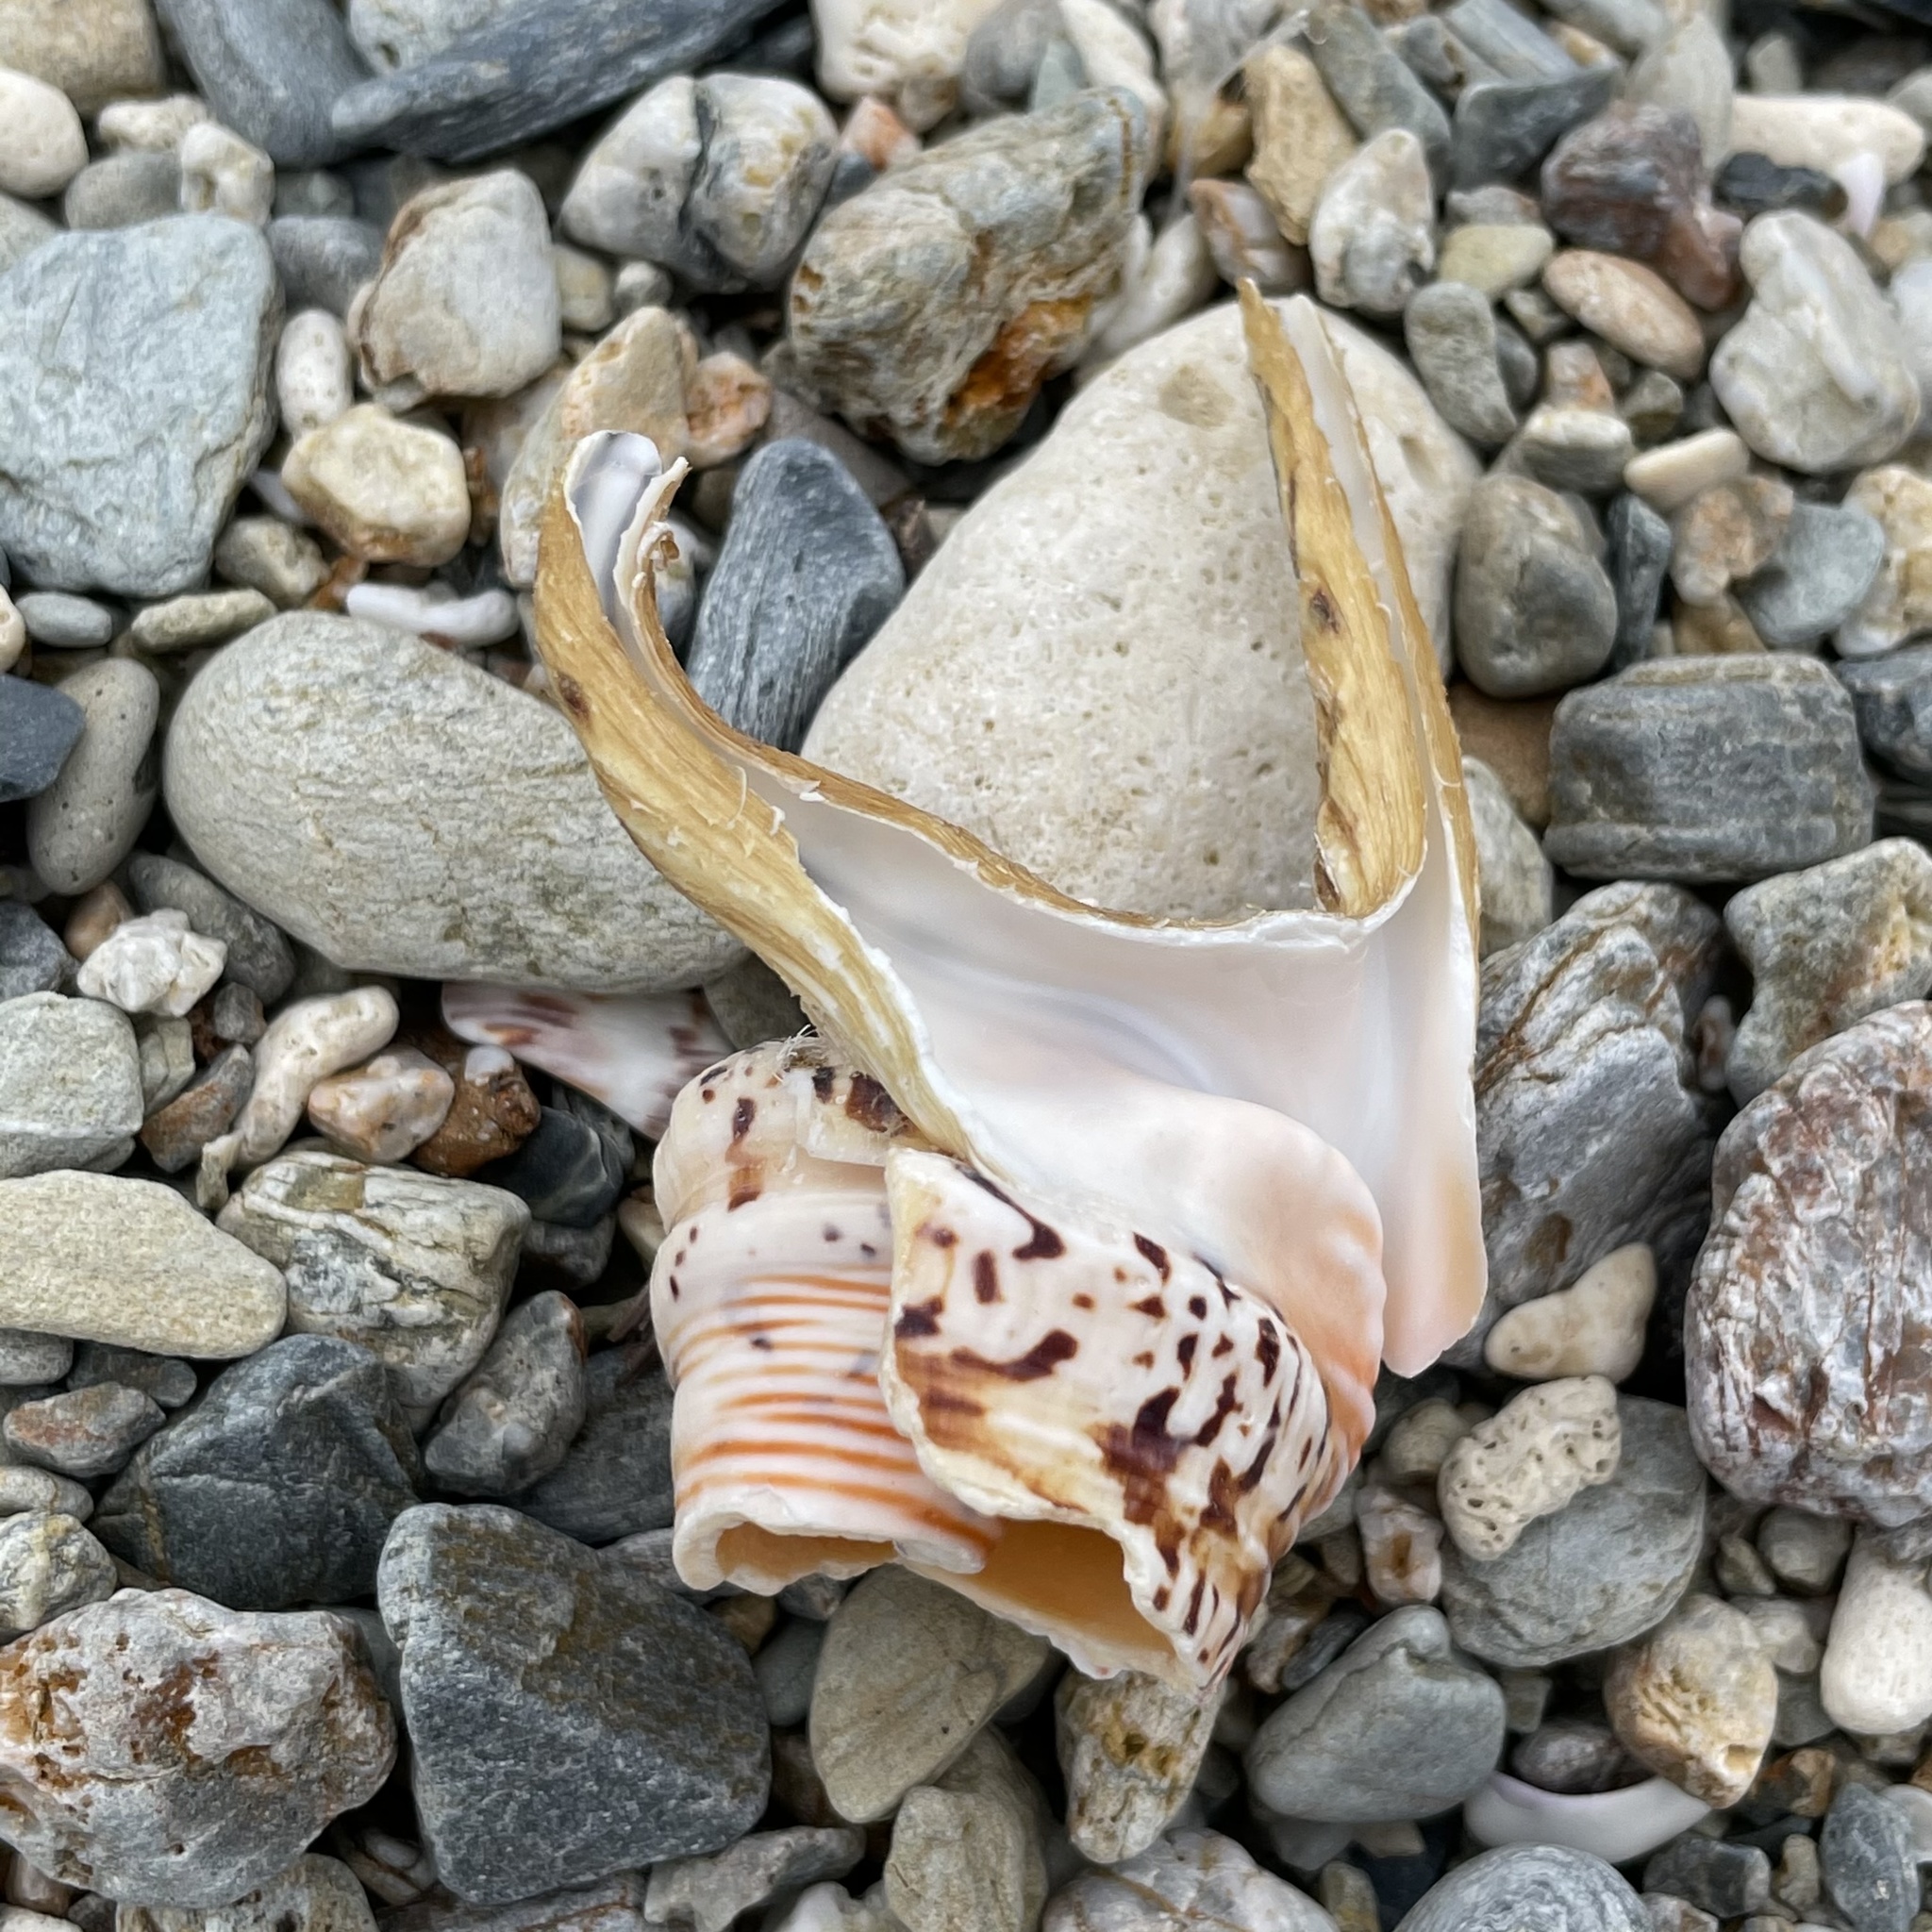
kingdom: Animalia
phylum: Mollusca
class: Gastropoda
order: Littorinimorpha
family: Strombidae
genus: Harpago
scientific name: Harpago chiragra
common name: Chiragra spider conch
